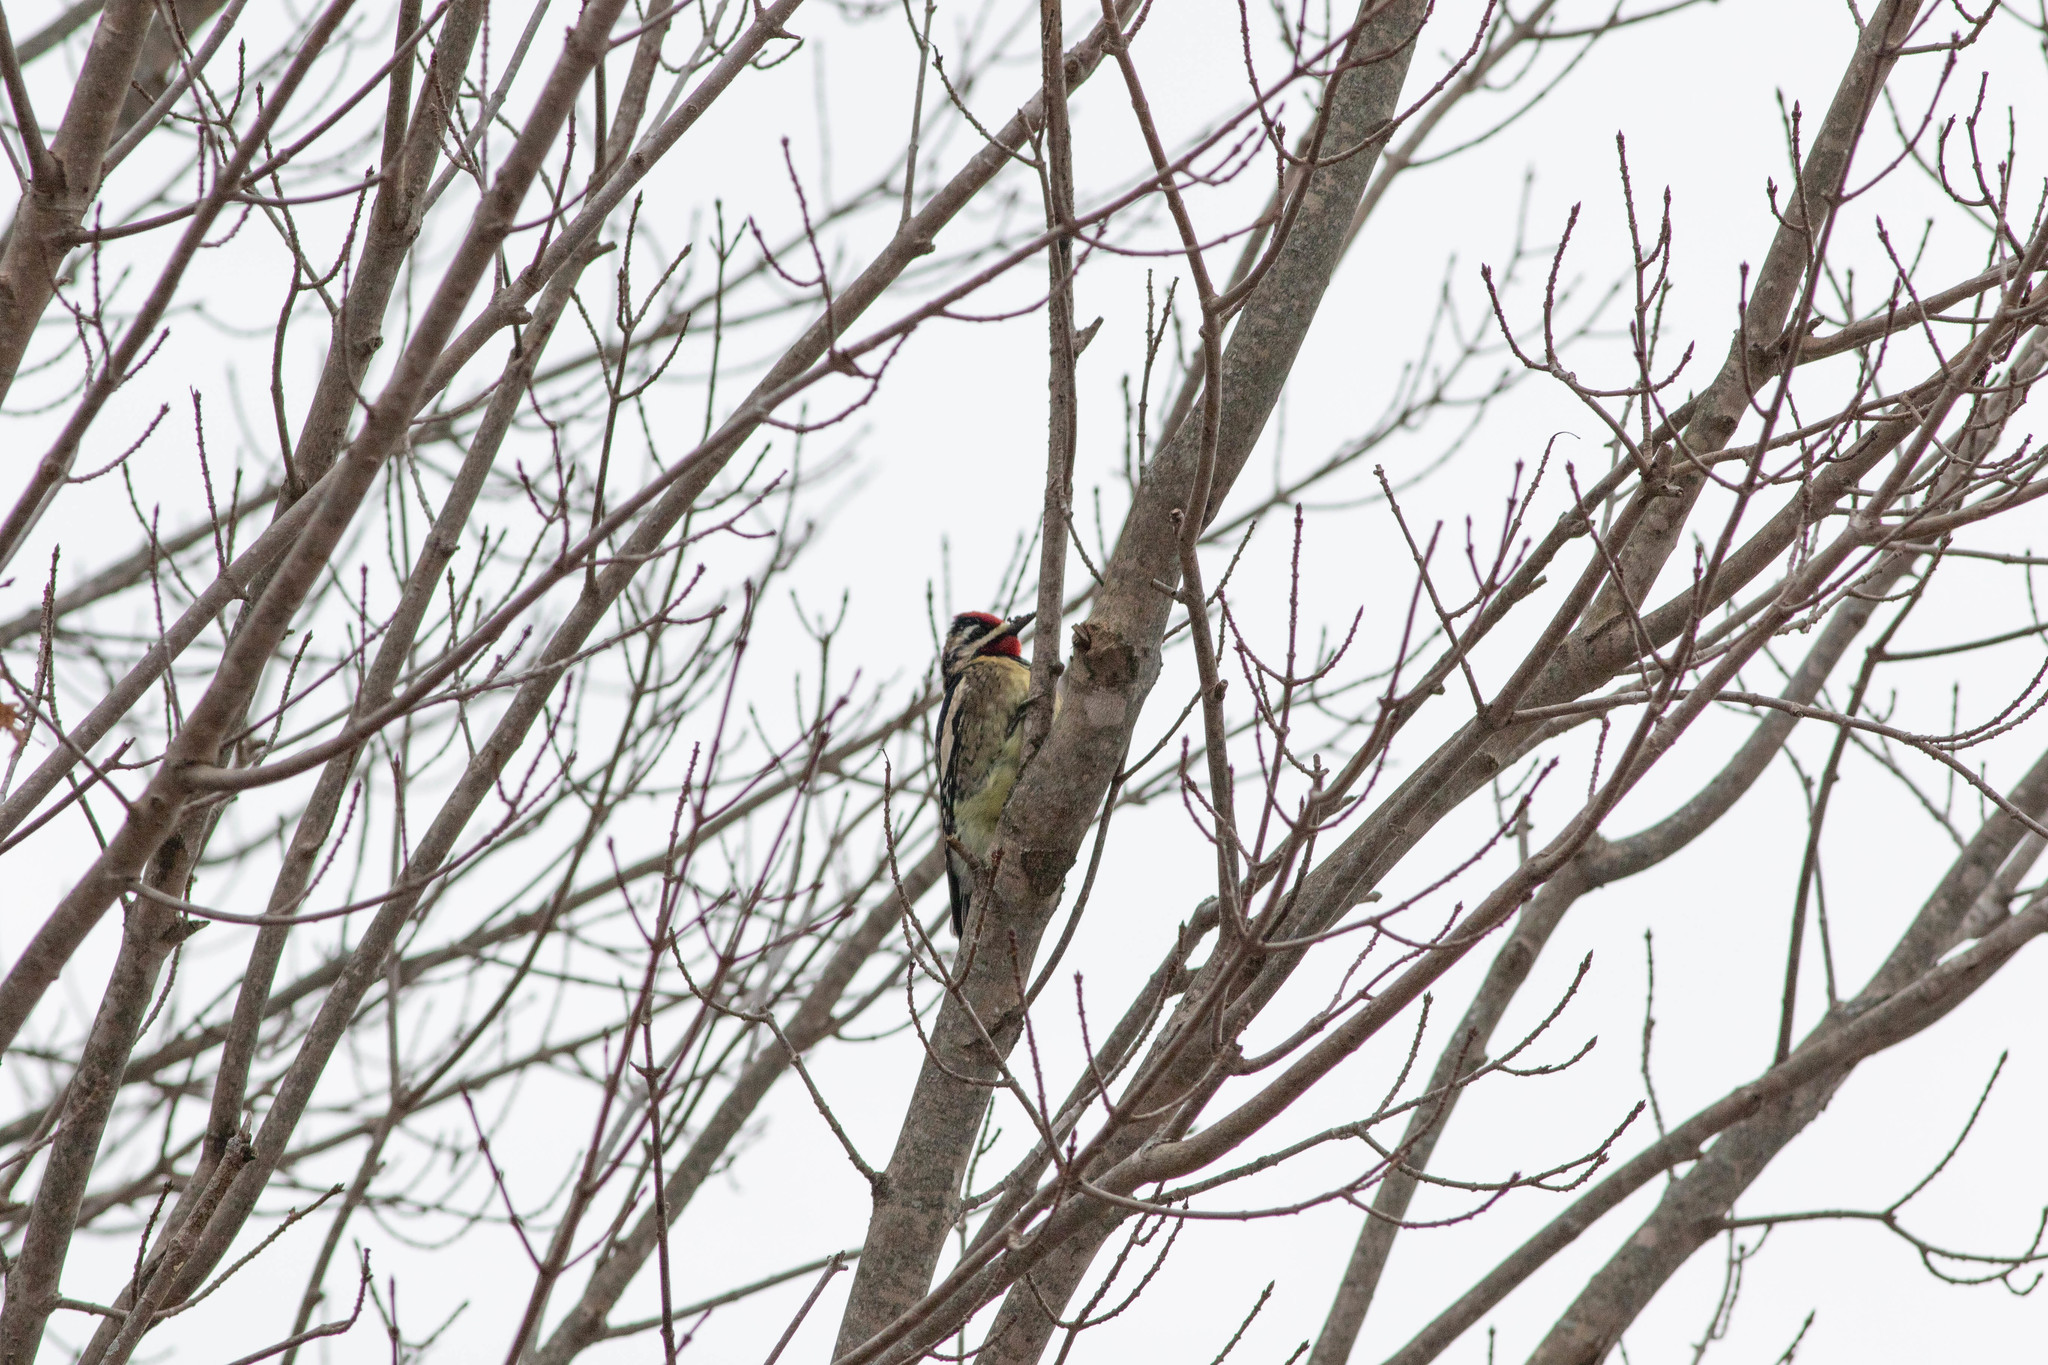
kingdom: Animalia
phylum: Chordata
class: Aves
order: Piciformes
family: Picidae
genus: Sphyrapicus
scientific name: Sphyrapicus varius
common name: Yellow-bellied sapsucker
